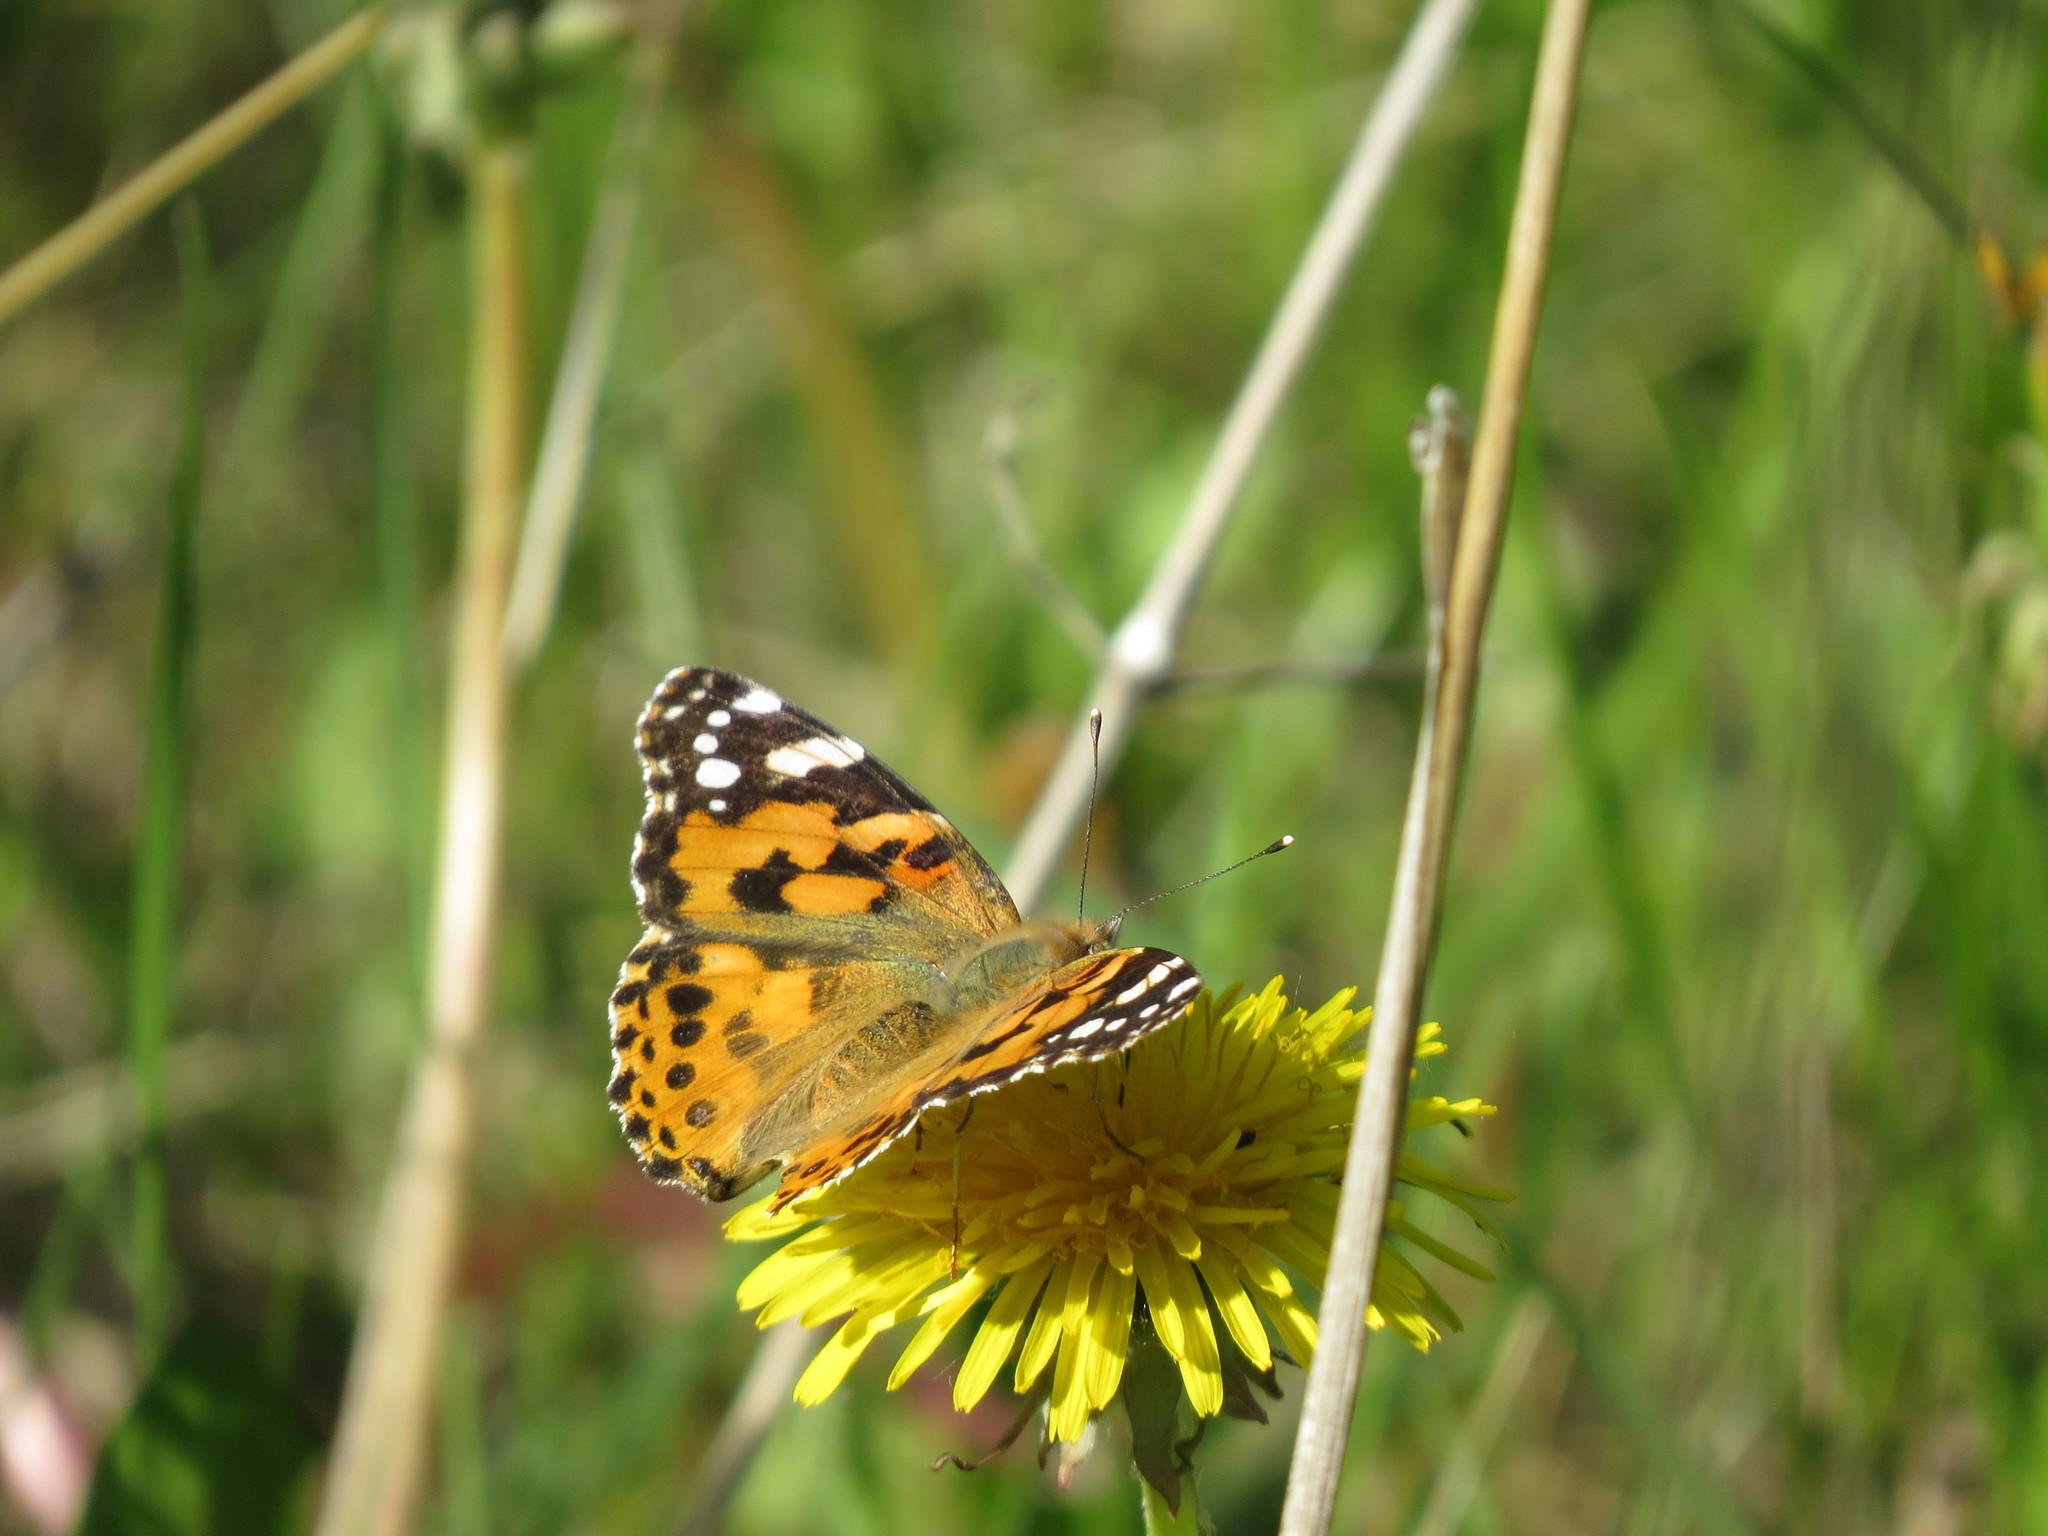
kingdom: Animalia
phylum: Arthropoda
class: Insecta
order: Lepidoptera
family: Nymphalidae
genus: Vanessa
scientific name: Vanessa cardui
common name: Painted lady
